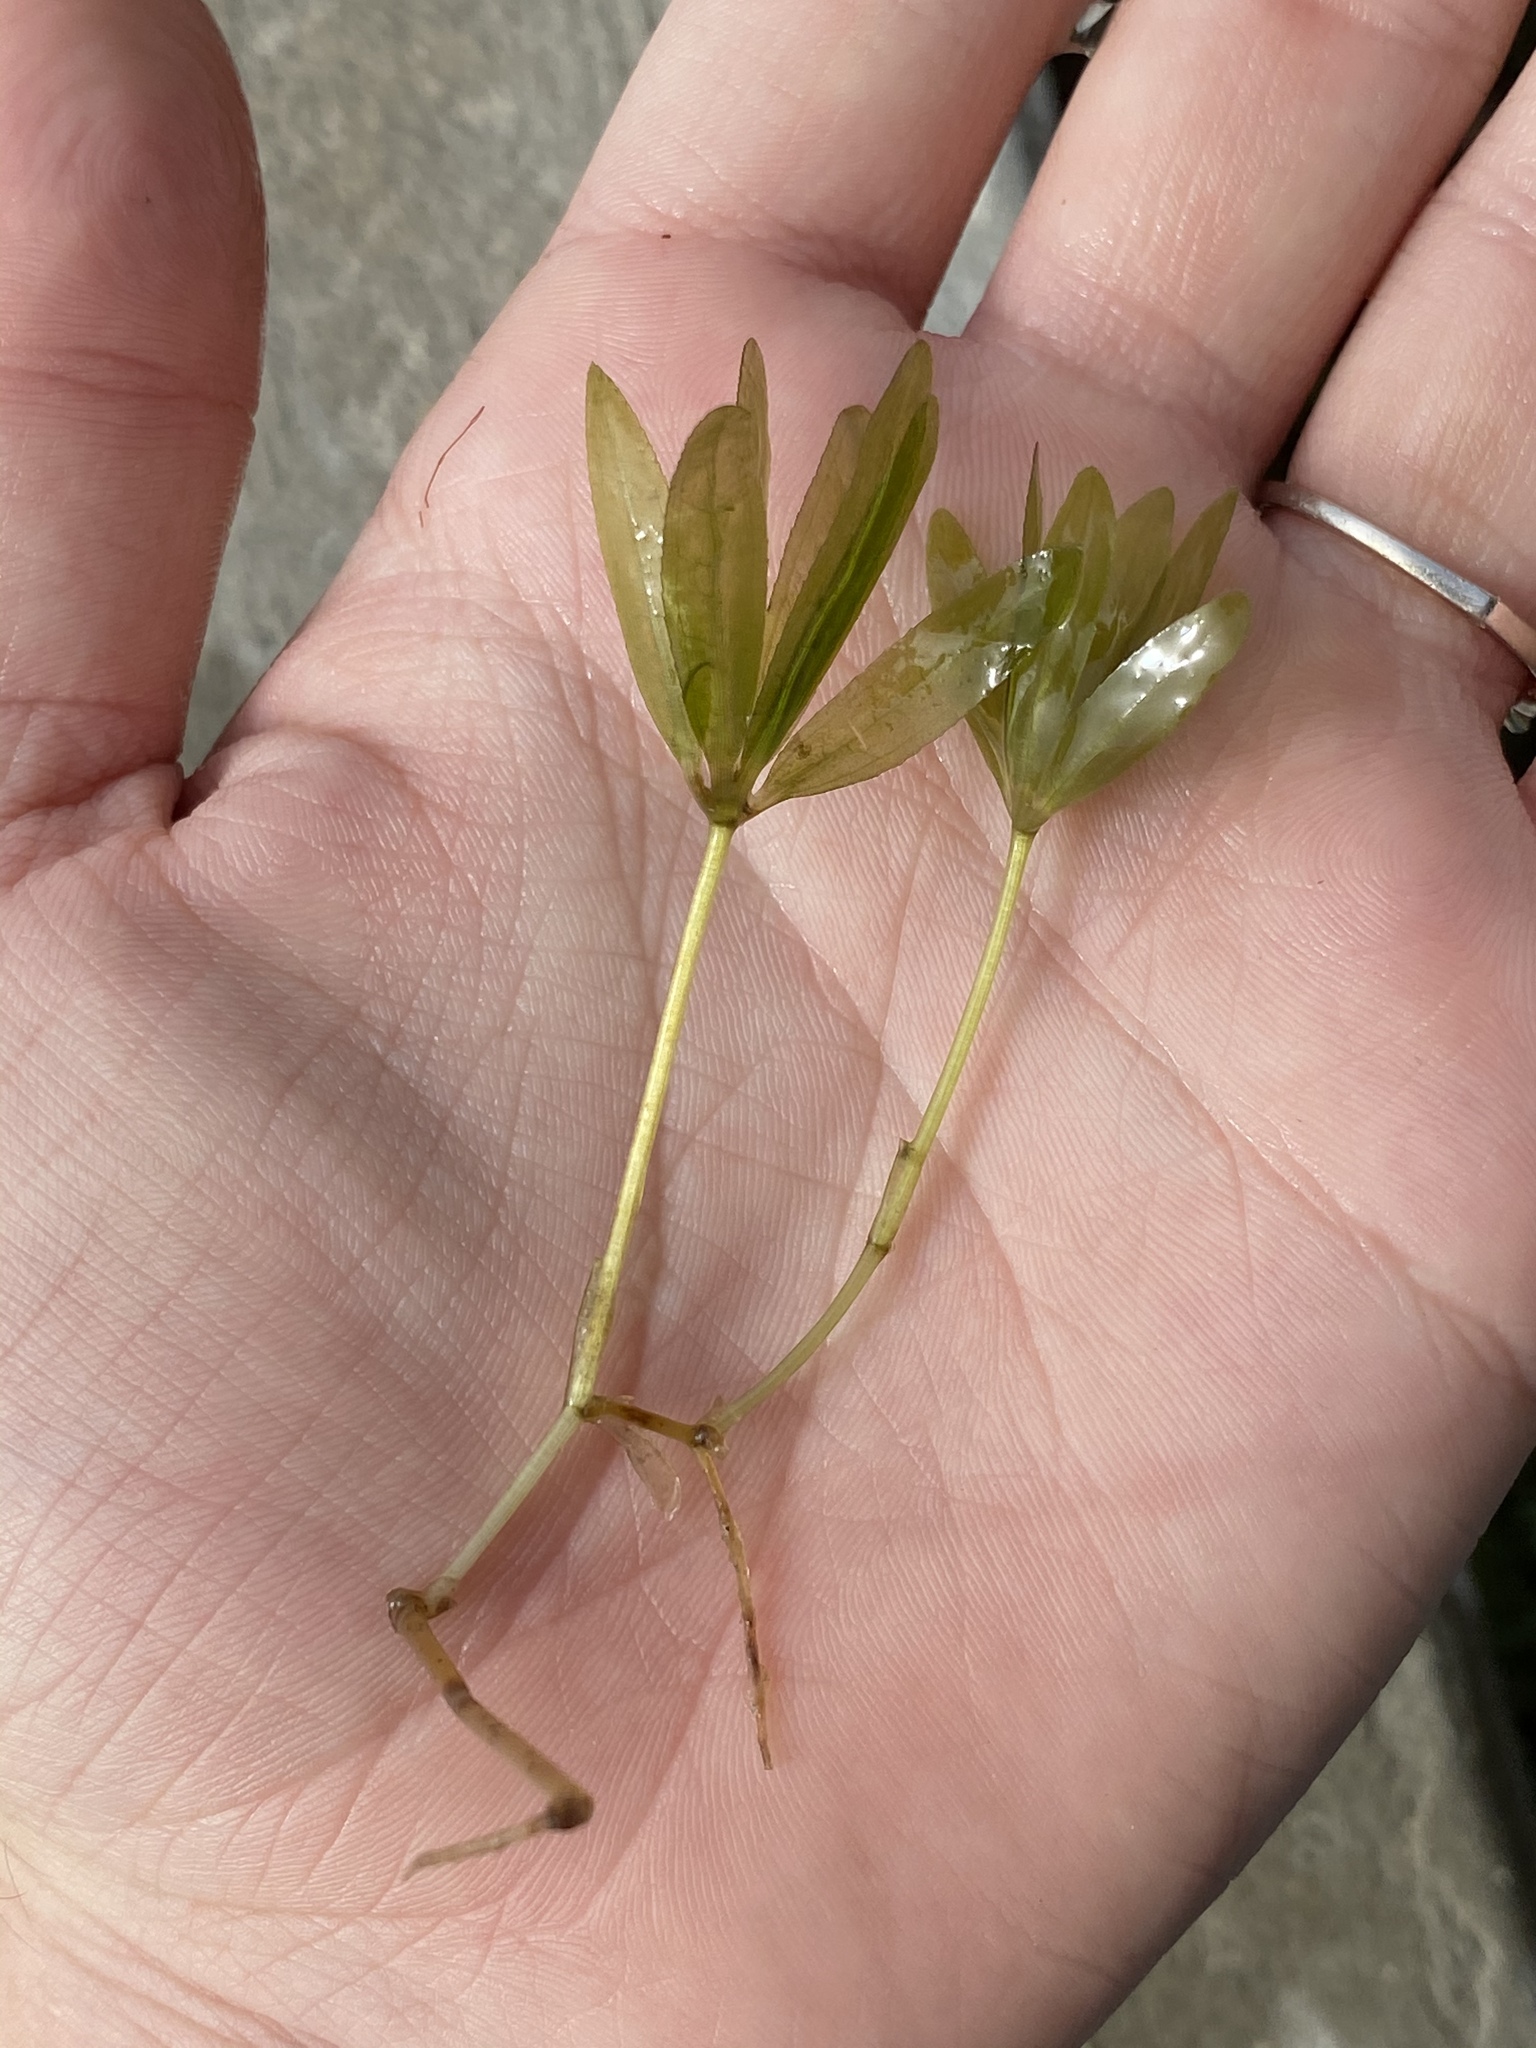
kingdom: Plantae
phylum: Tracheophyta
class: Liliopsida
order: Alismatales
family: Hydrocharitaceae
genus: Halophila
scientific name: Halophila engelmannii
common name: Species code: he
